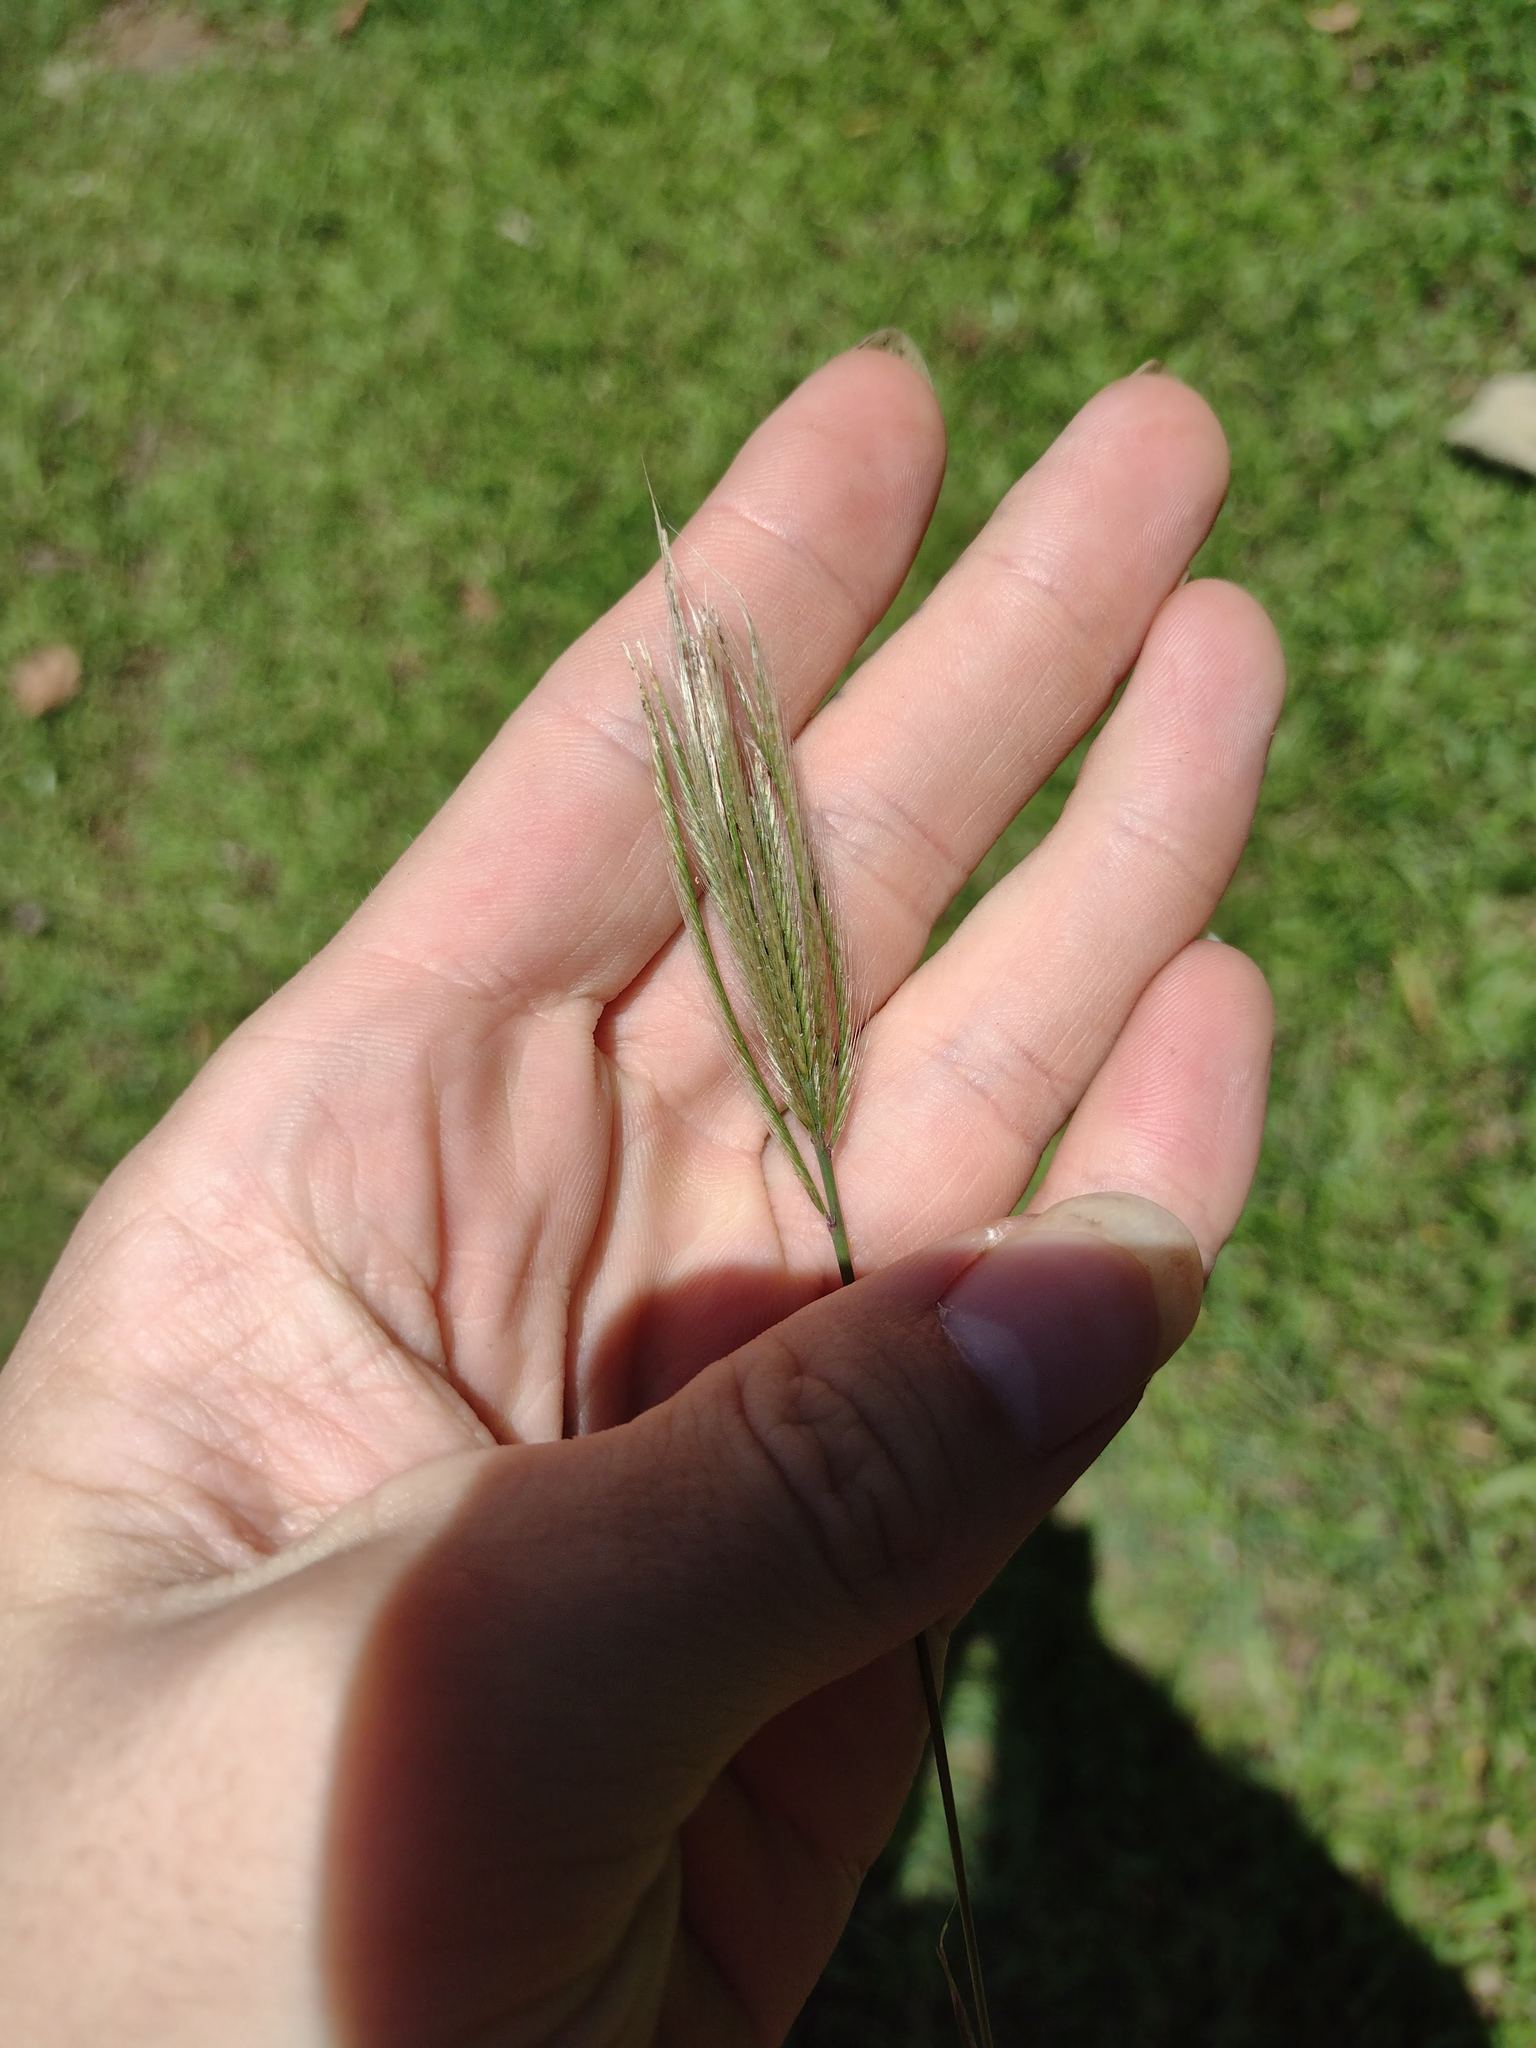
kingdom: Plantae
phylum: Tracheophyta
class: Liliopsida
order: Poales
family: Poaceae
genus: Chloris
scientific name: Chloris radiata
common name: Radiate fingergrass
